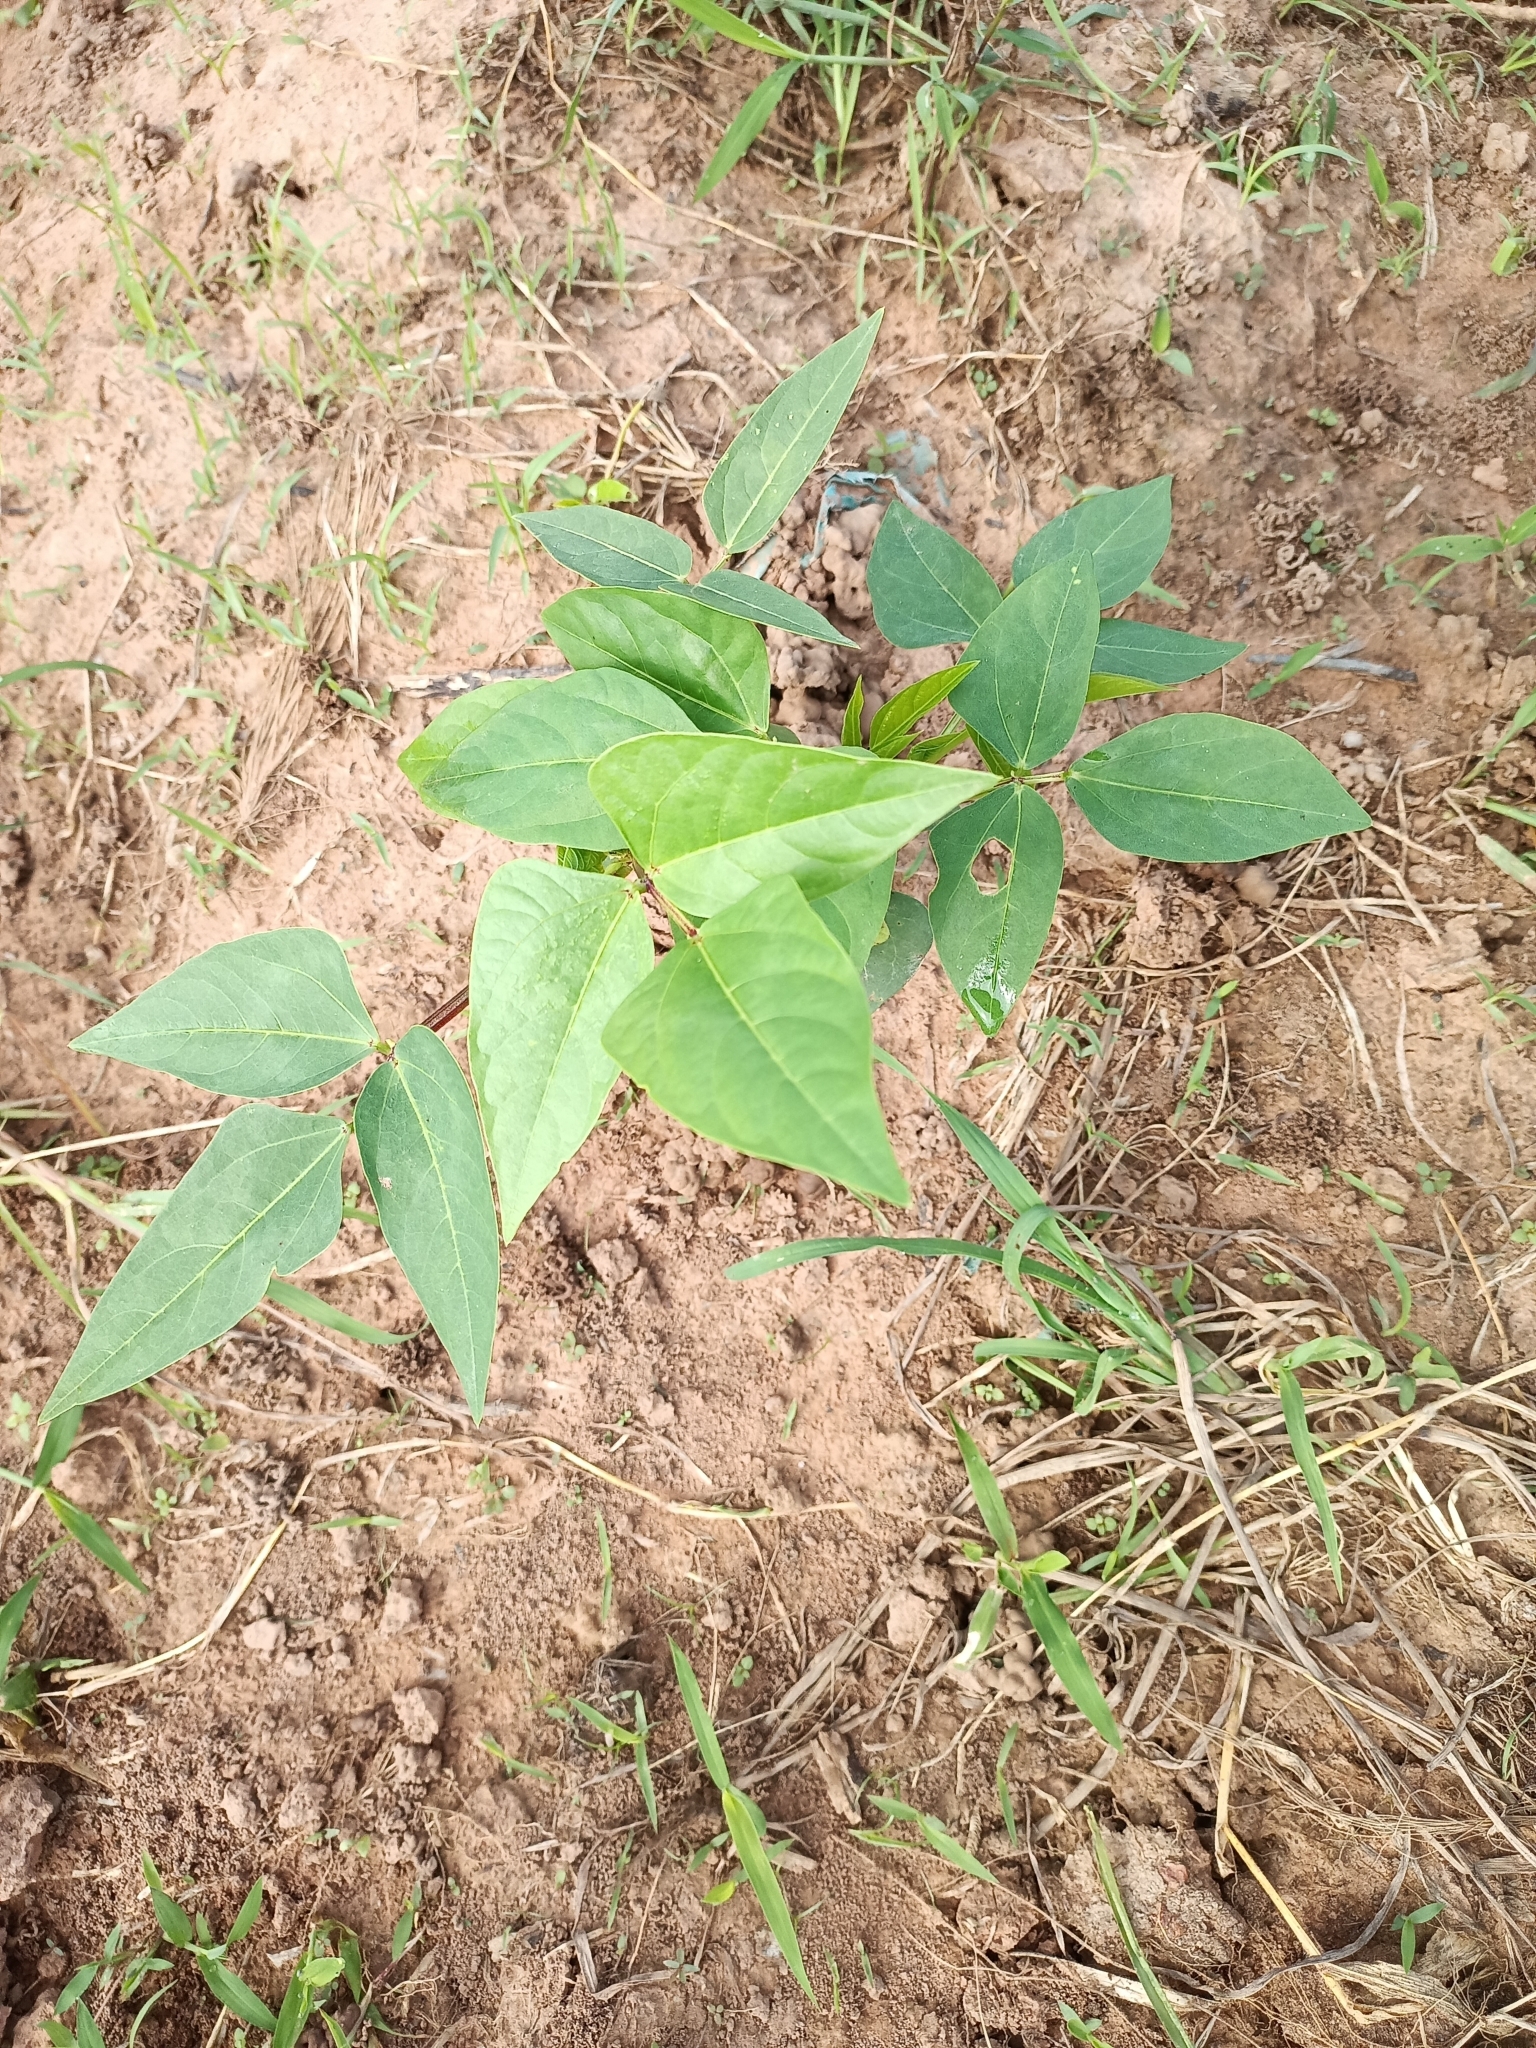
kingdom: Plantae
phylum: Tracheophyta
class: Magnoliopsida
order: Fabales
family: Fabaceae
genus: Phaseolus
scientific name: Phaseolus vulgaris
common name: Bean
